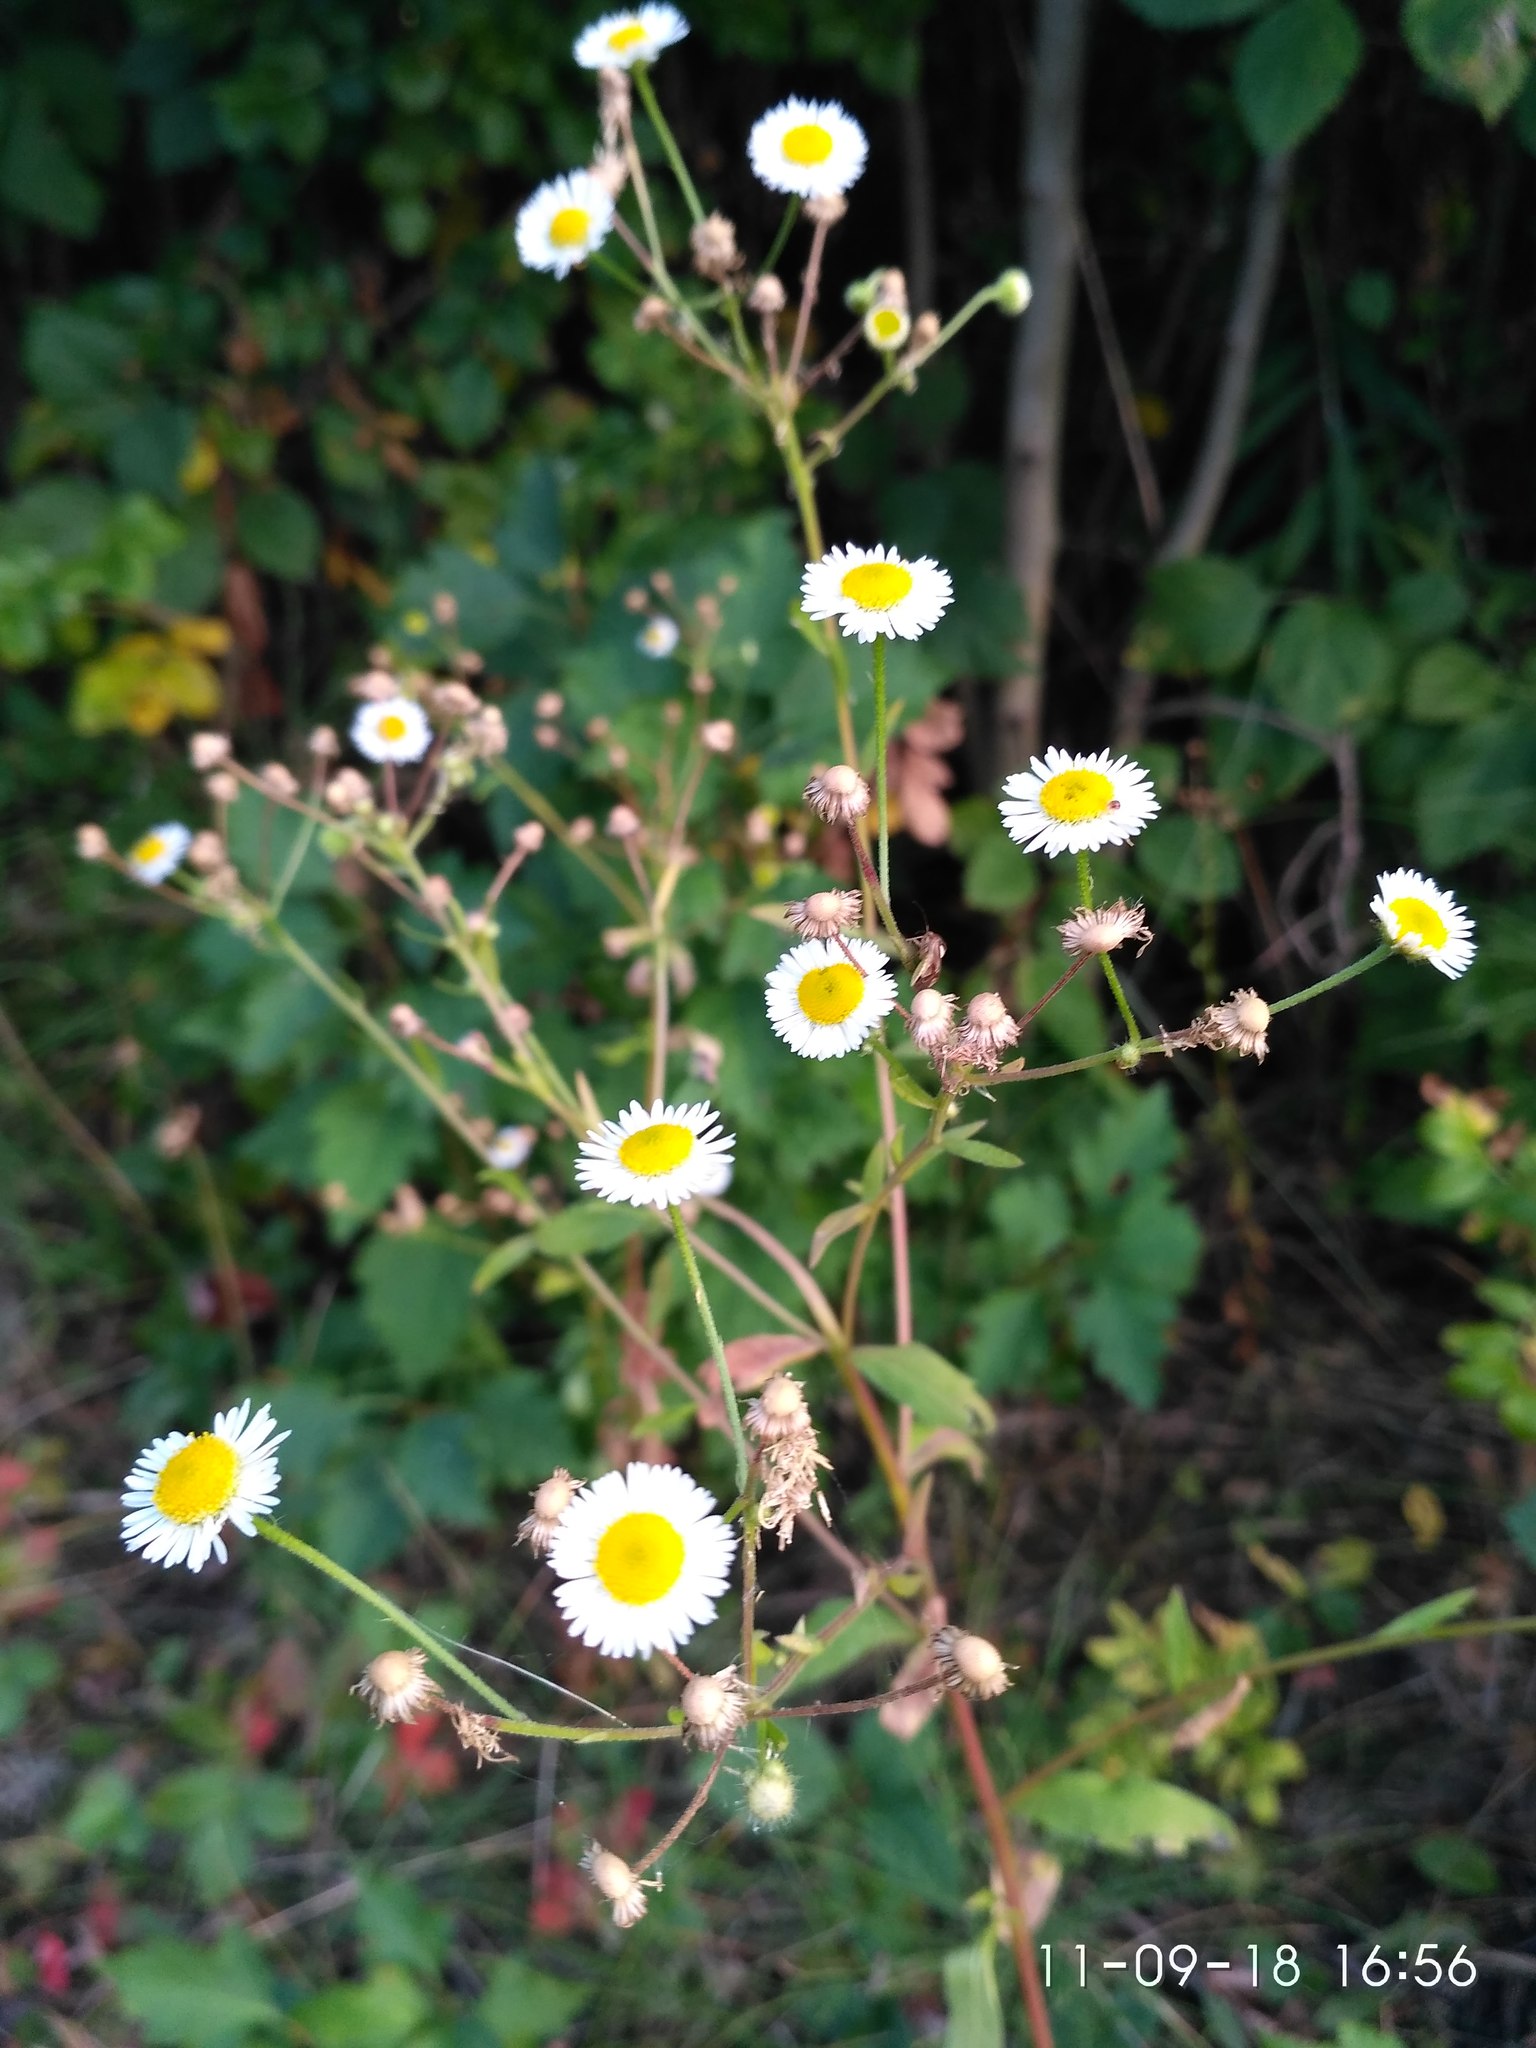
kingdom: Plantae
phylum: Tracheophyta
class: Magnoliopsida
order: Asterales
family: Asteraceae
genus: Erigeron
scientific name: Erigeron strigosus
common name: Common eastern fleabane
